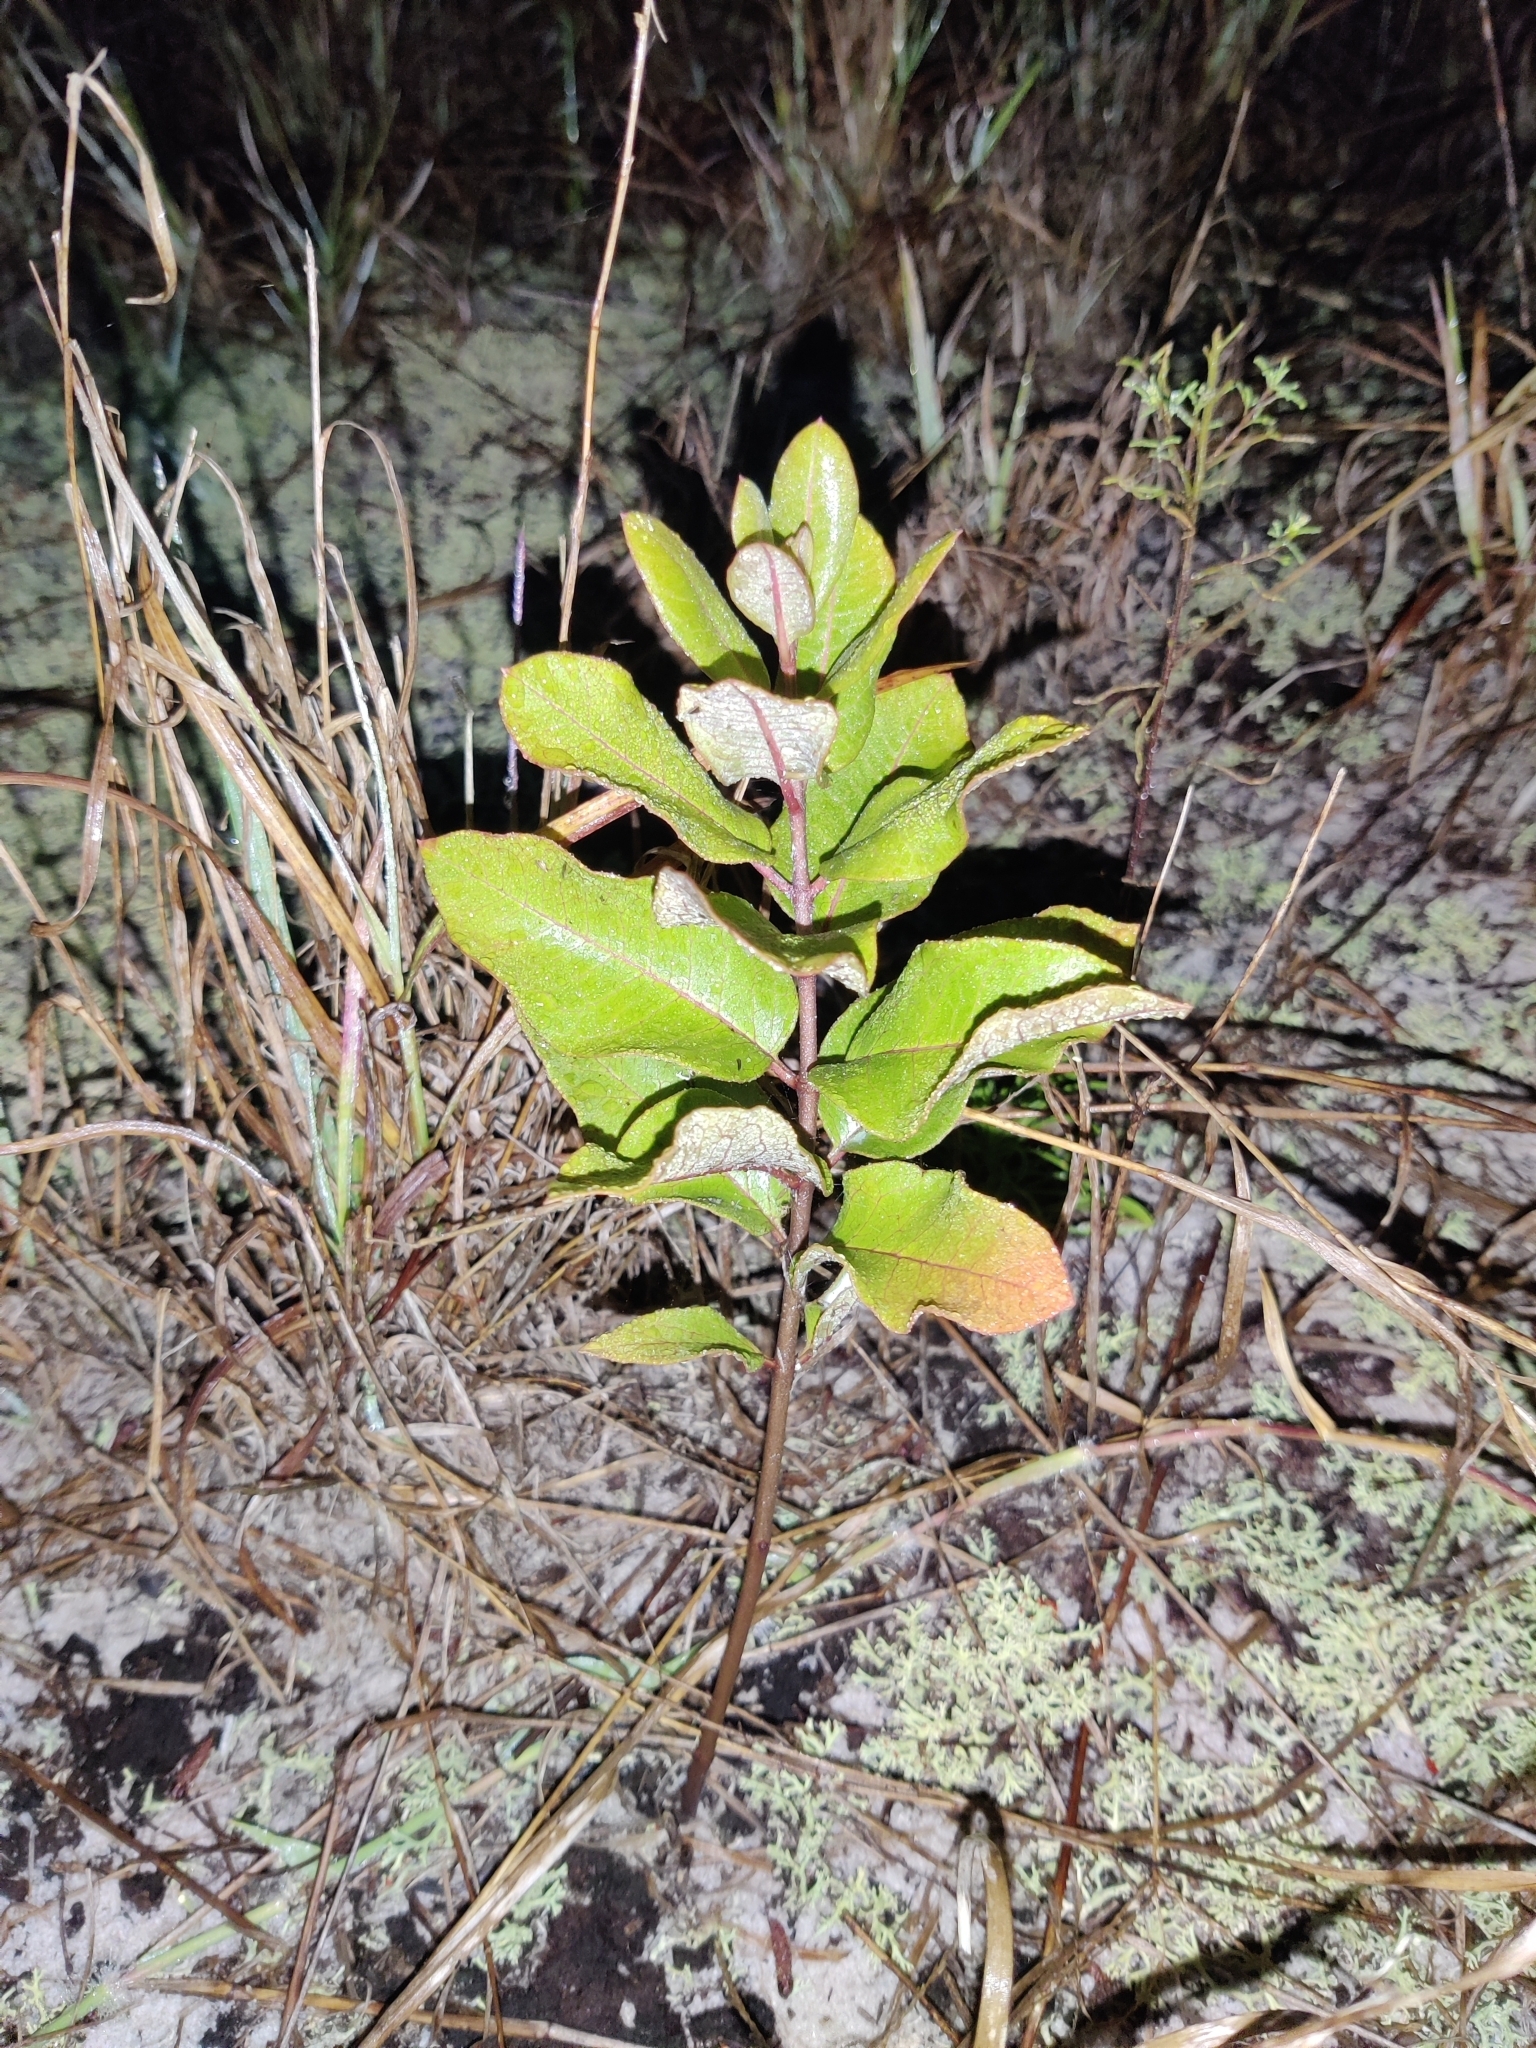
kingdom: Plantae
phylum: Tracheophyta
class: Magnoliopsida
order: Gentianales
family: Apocynaceae
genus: Asclepias
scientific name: Asclepias tomentosa
